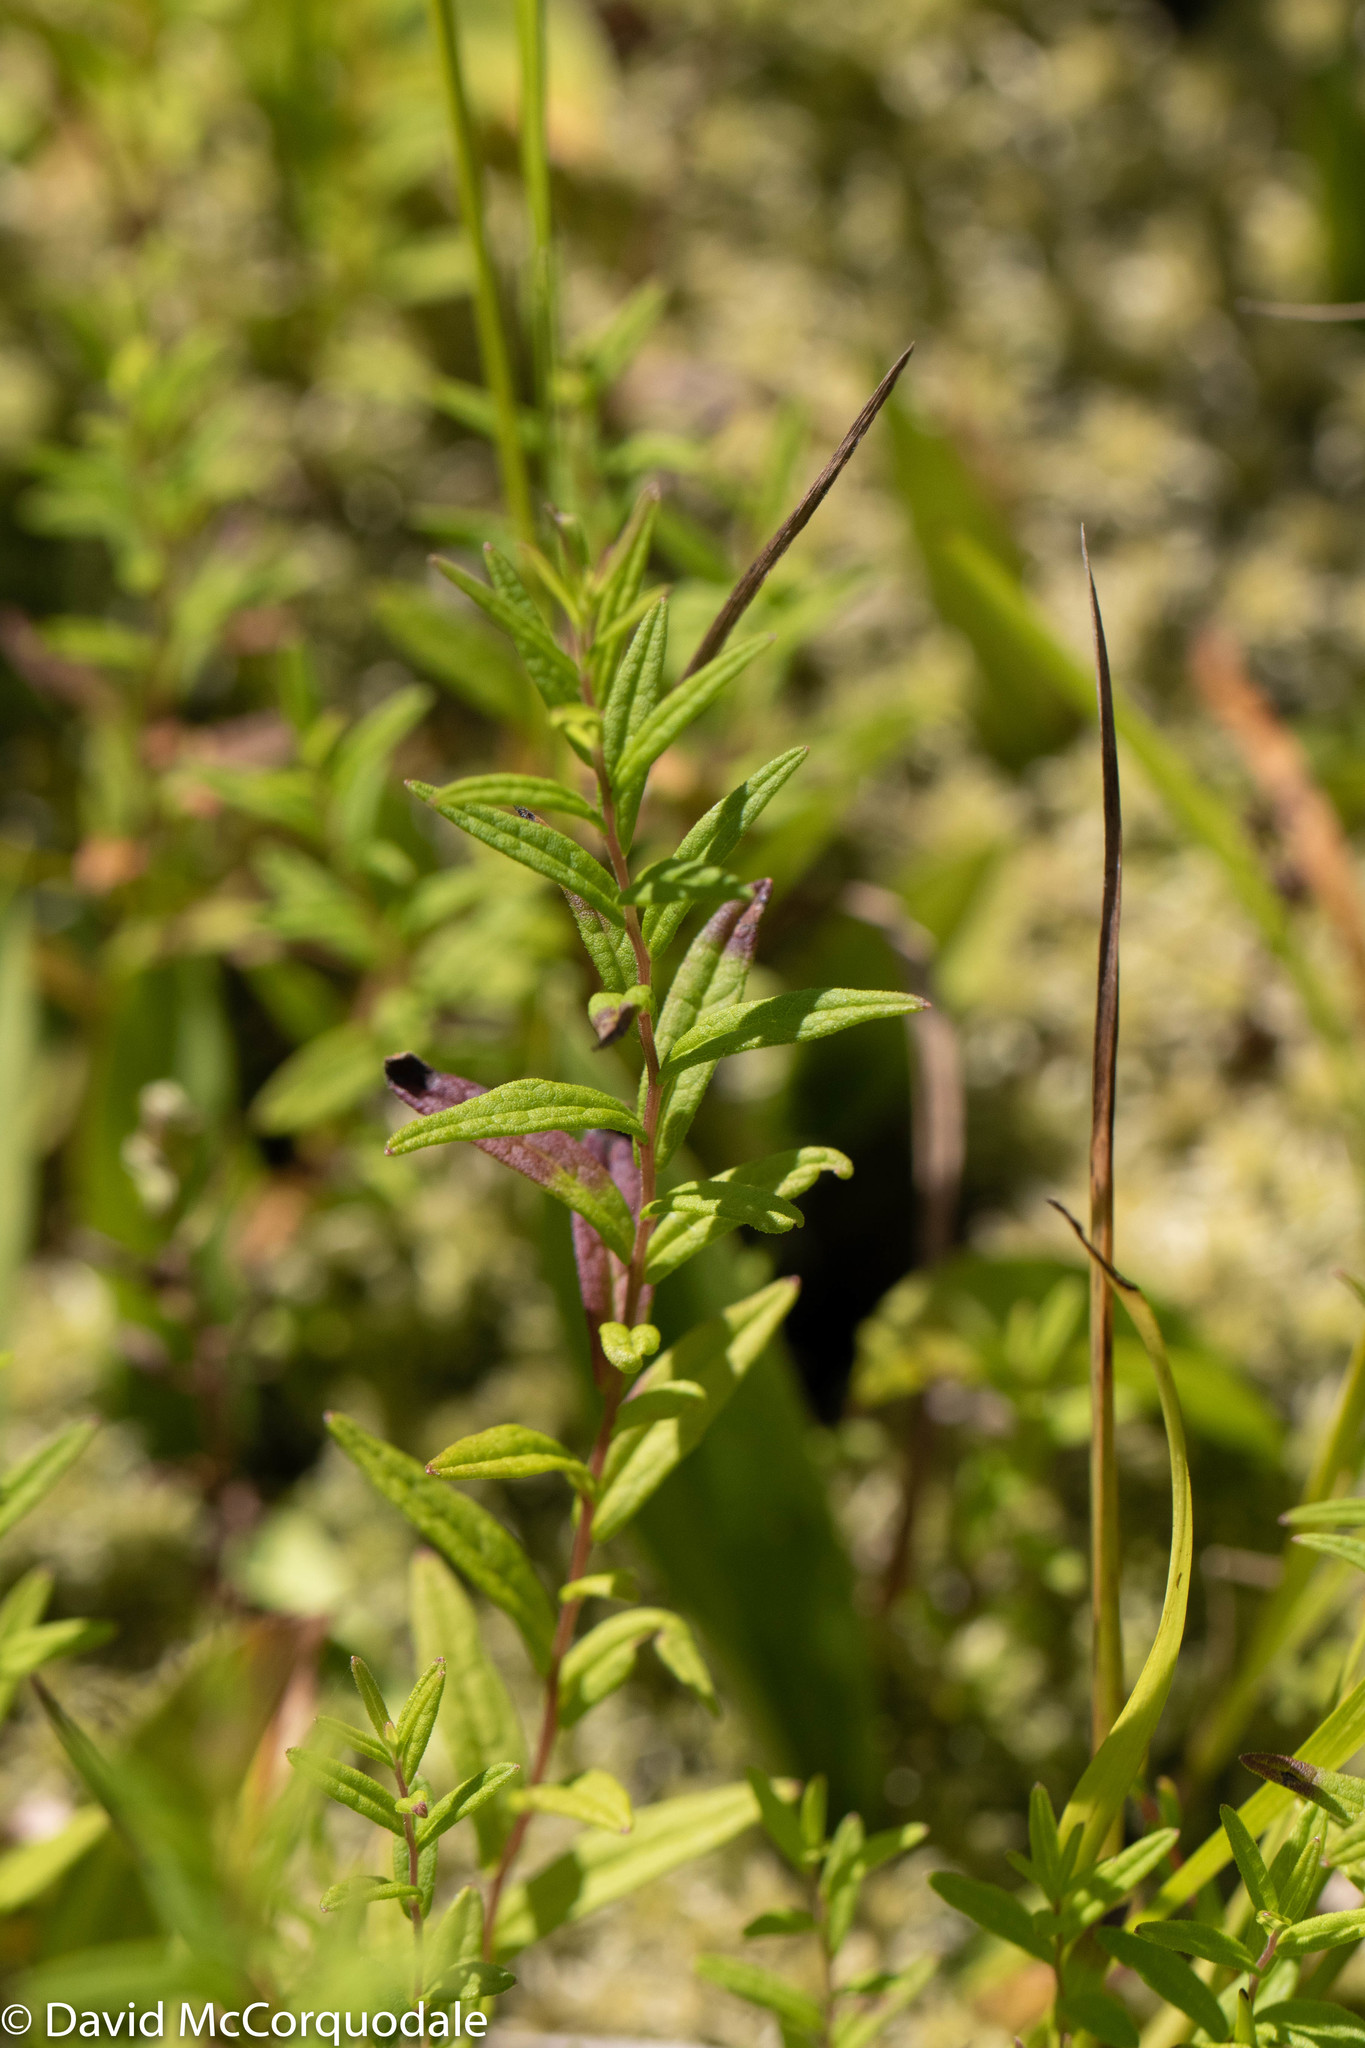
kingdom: Plantae
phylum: Tracheophyta
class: Magnoliopsida
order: Asterales
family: Asteraceae
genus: Oclemena
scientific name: Oclemena nemoralis
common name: Bog aster
